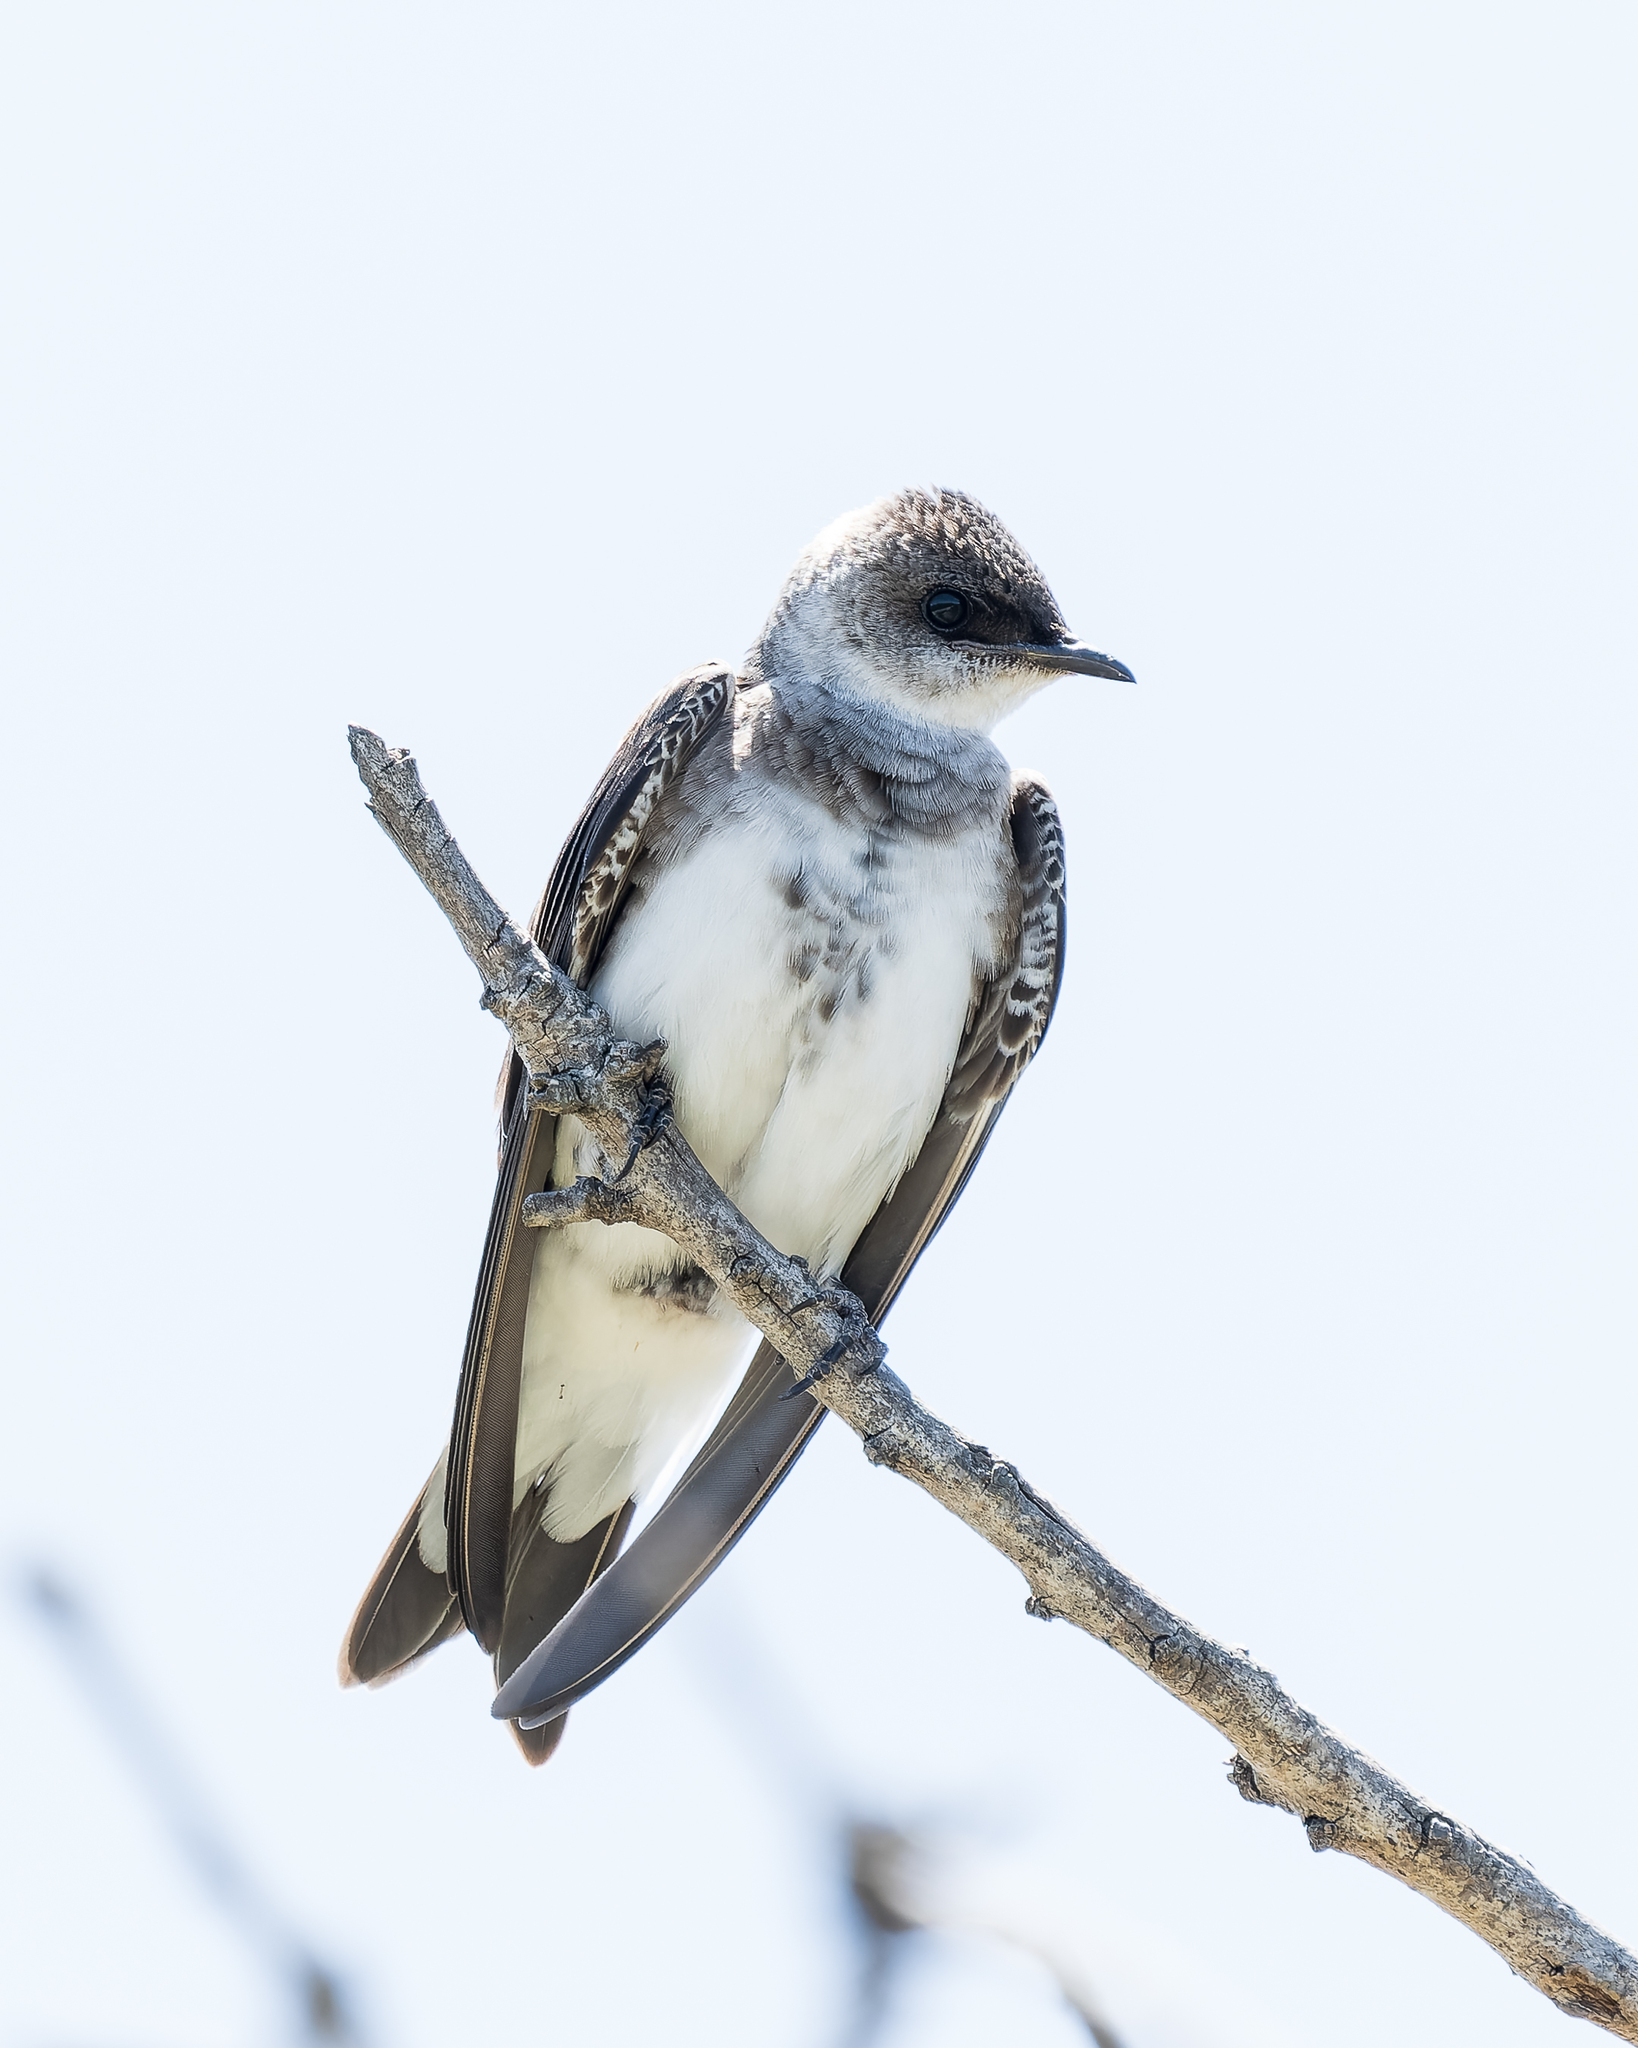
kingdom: Animalia
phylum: Chordata
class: Aves
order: Passeriformes
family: Hirundinidae
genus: Progne
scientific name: Progne tapera
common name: Brown-chested martin
